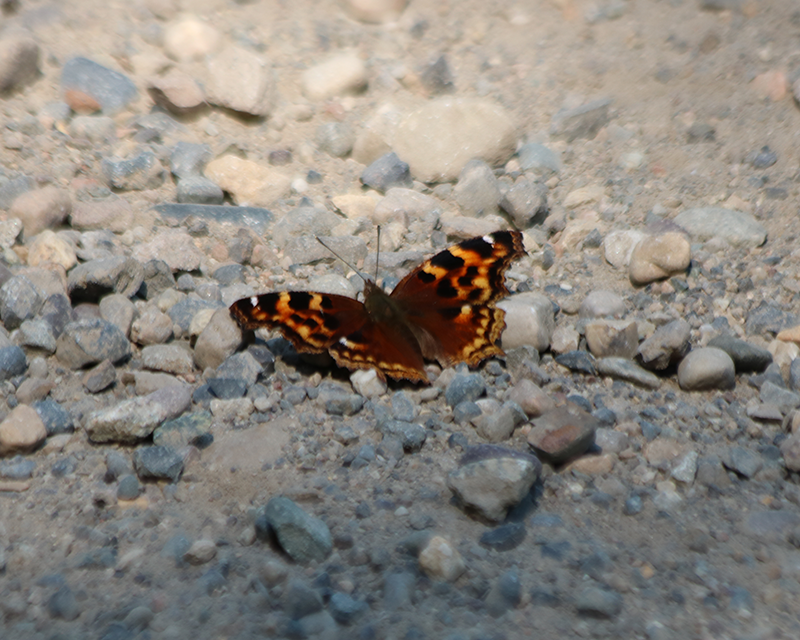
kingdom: Animalia
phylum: Arthropoda
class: Insecta
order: Lepidoptera
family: Nymphalidae
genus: Polygonia
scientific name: Polygonia vaualbum
